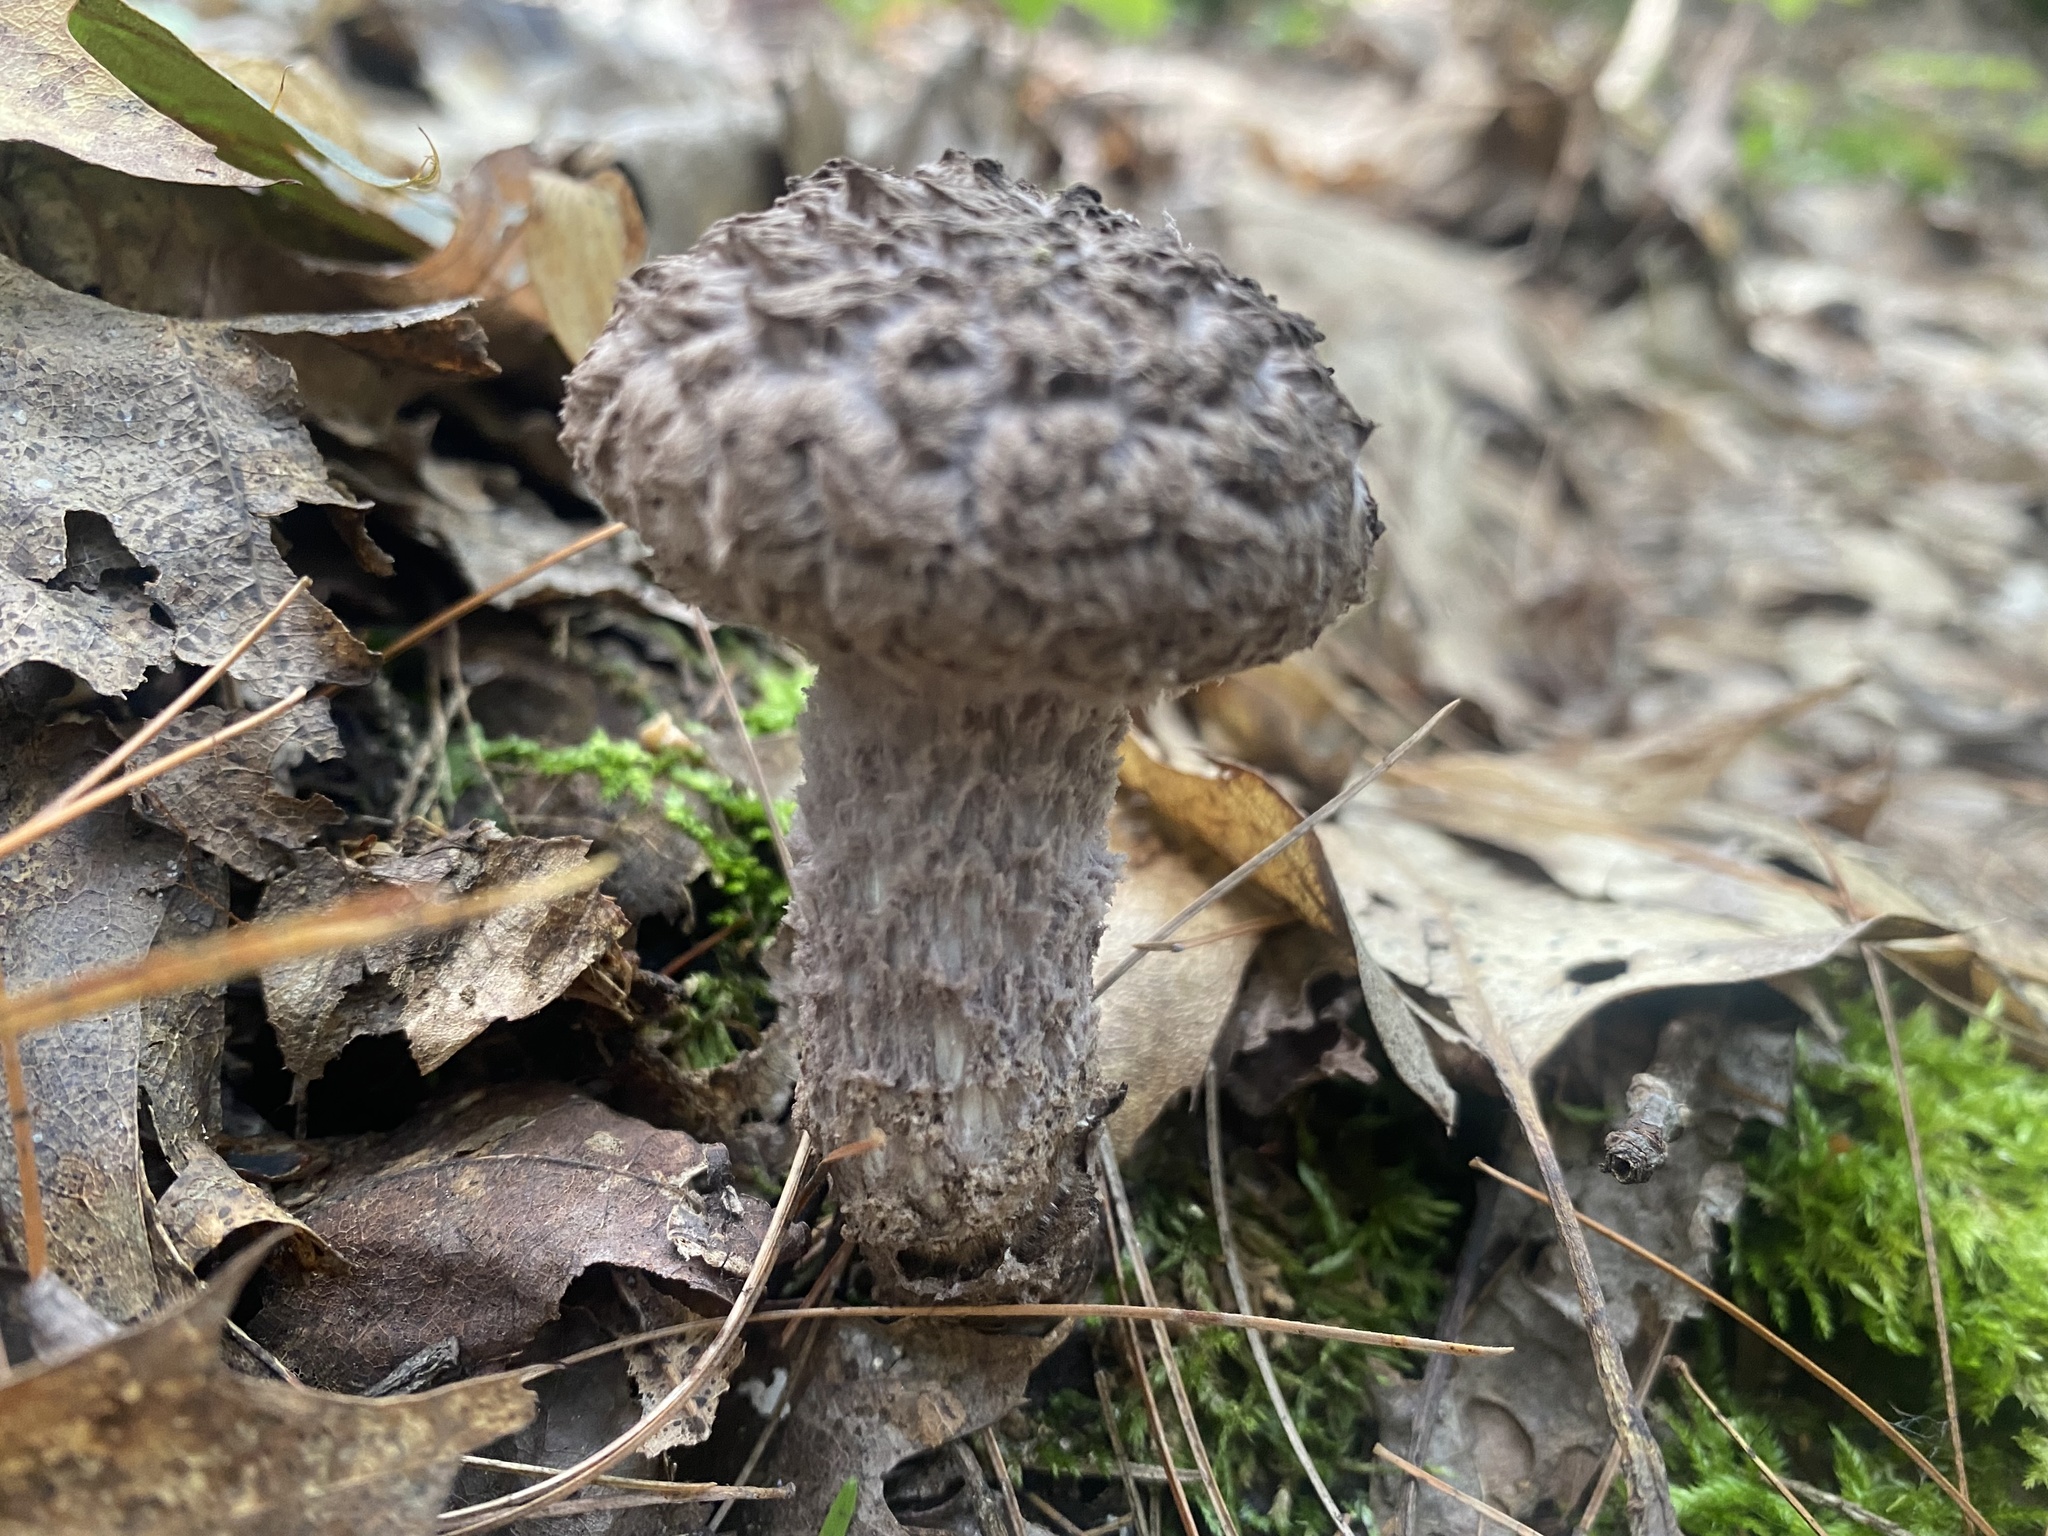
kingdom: Fungi
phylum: Basidiomycota
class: Agaricomycetes
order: Boletales
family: Boletaceae
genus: Strobilomyces
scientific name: Strobilomyces strobilaceus
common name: Old man of the woods
